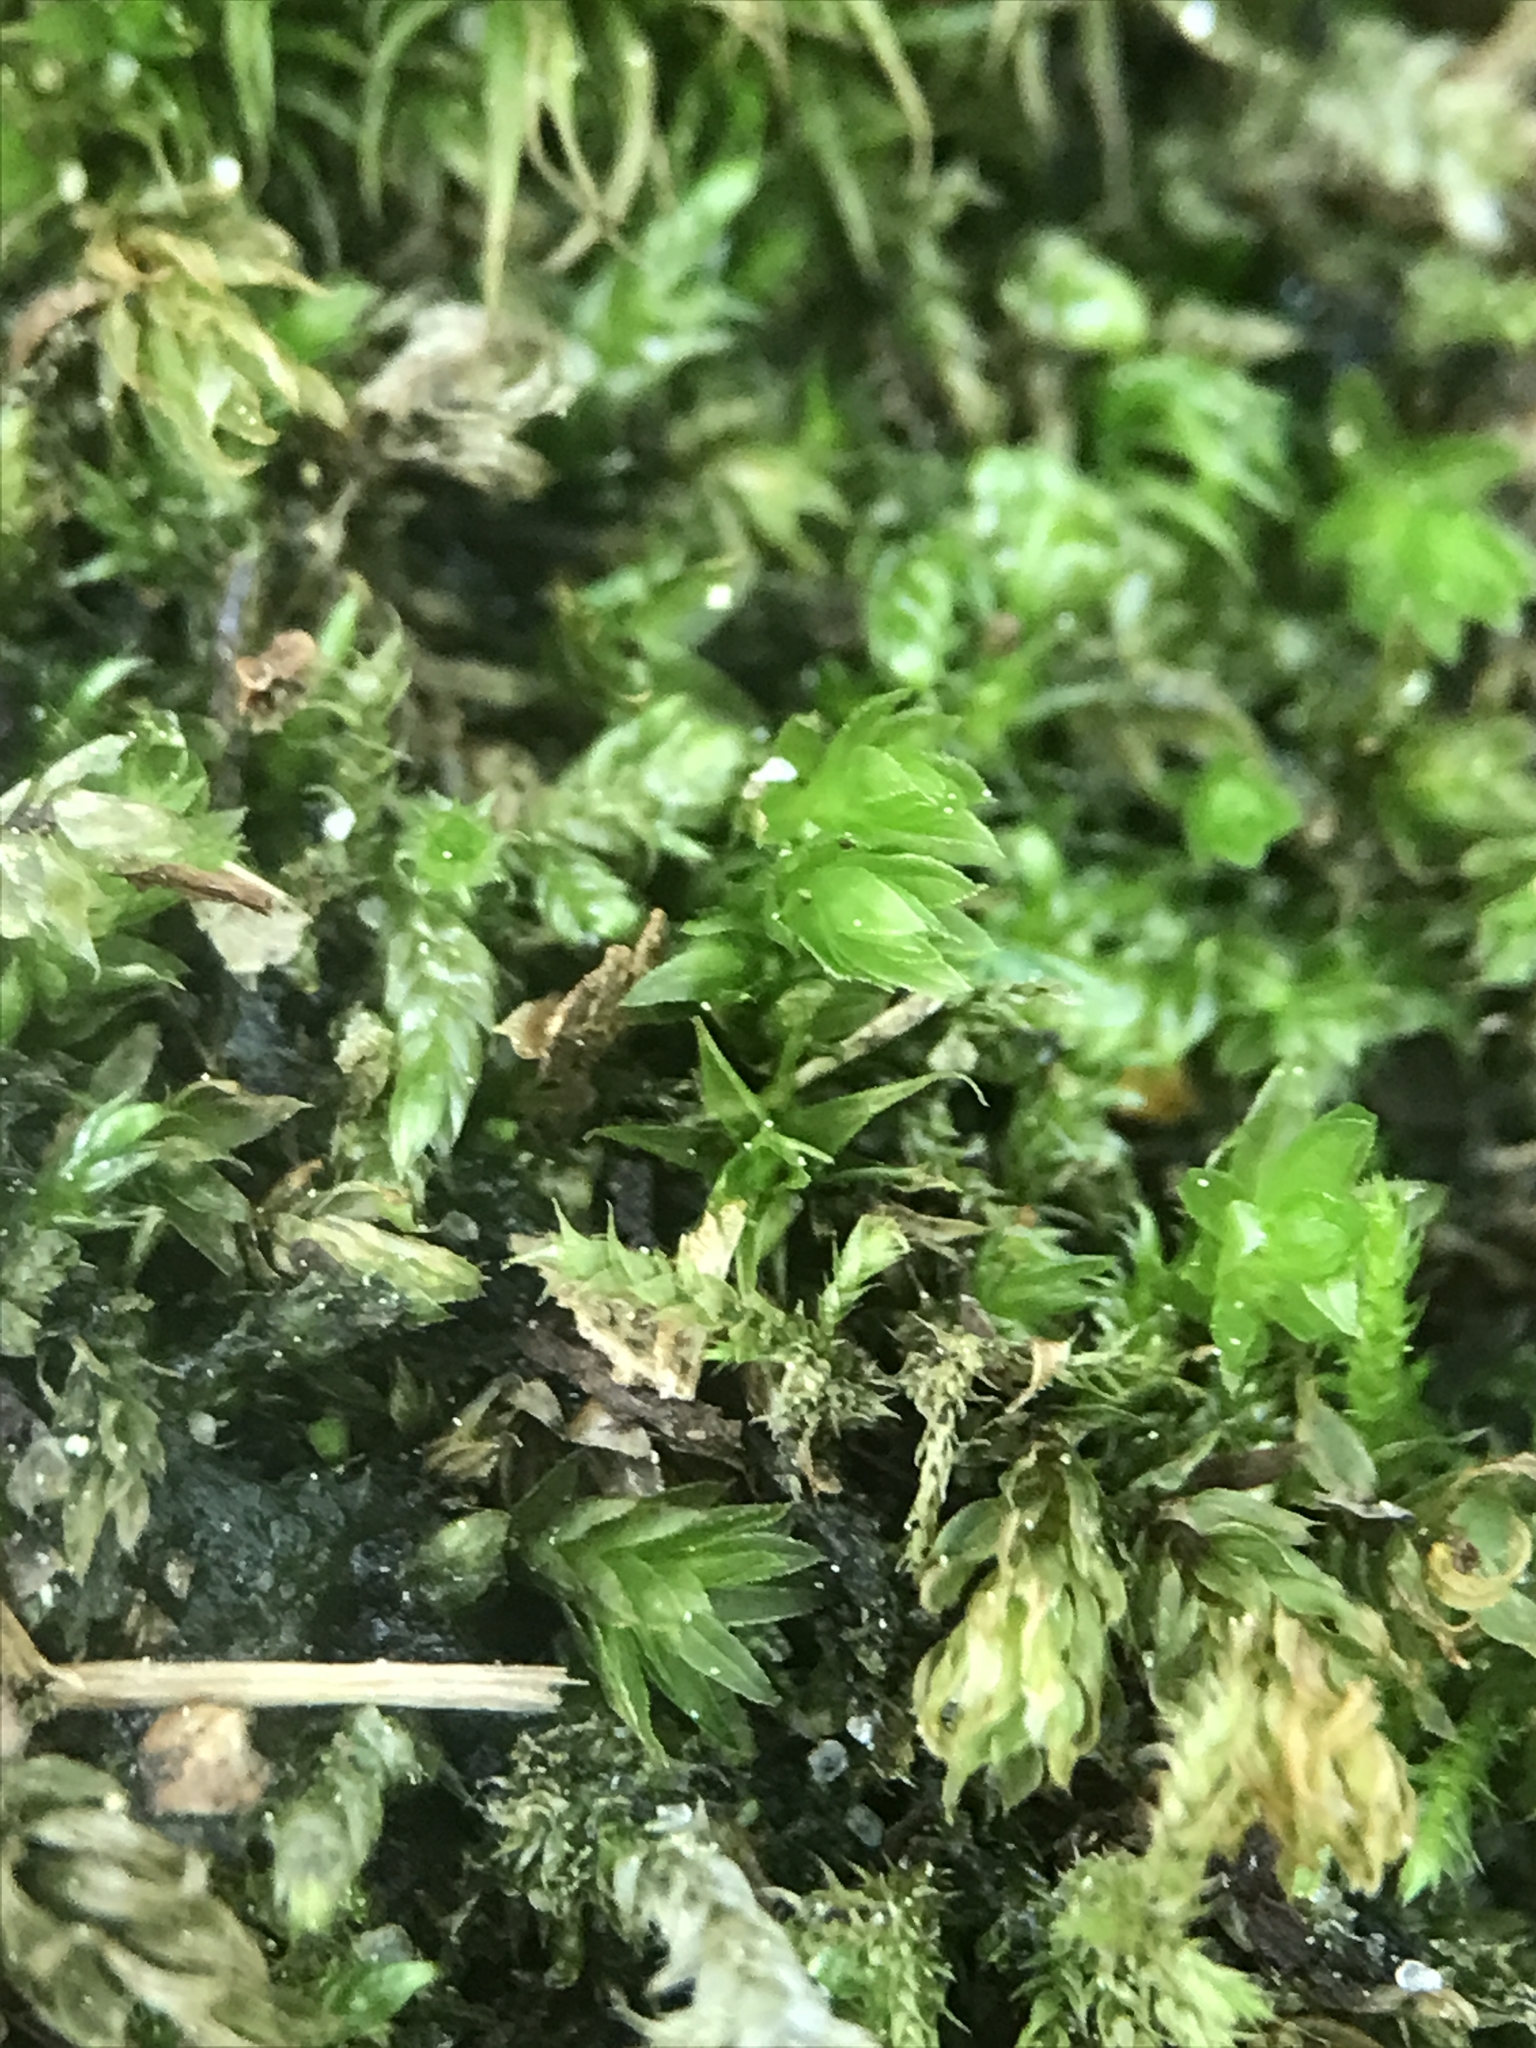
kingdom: Plantae
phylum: Bryophyta
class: Bryopsida
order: Bryales
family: Mniaceae
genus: Mnium
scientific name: Mnium hornum
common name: Swan's-neck leafy moss
